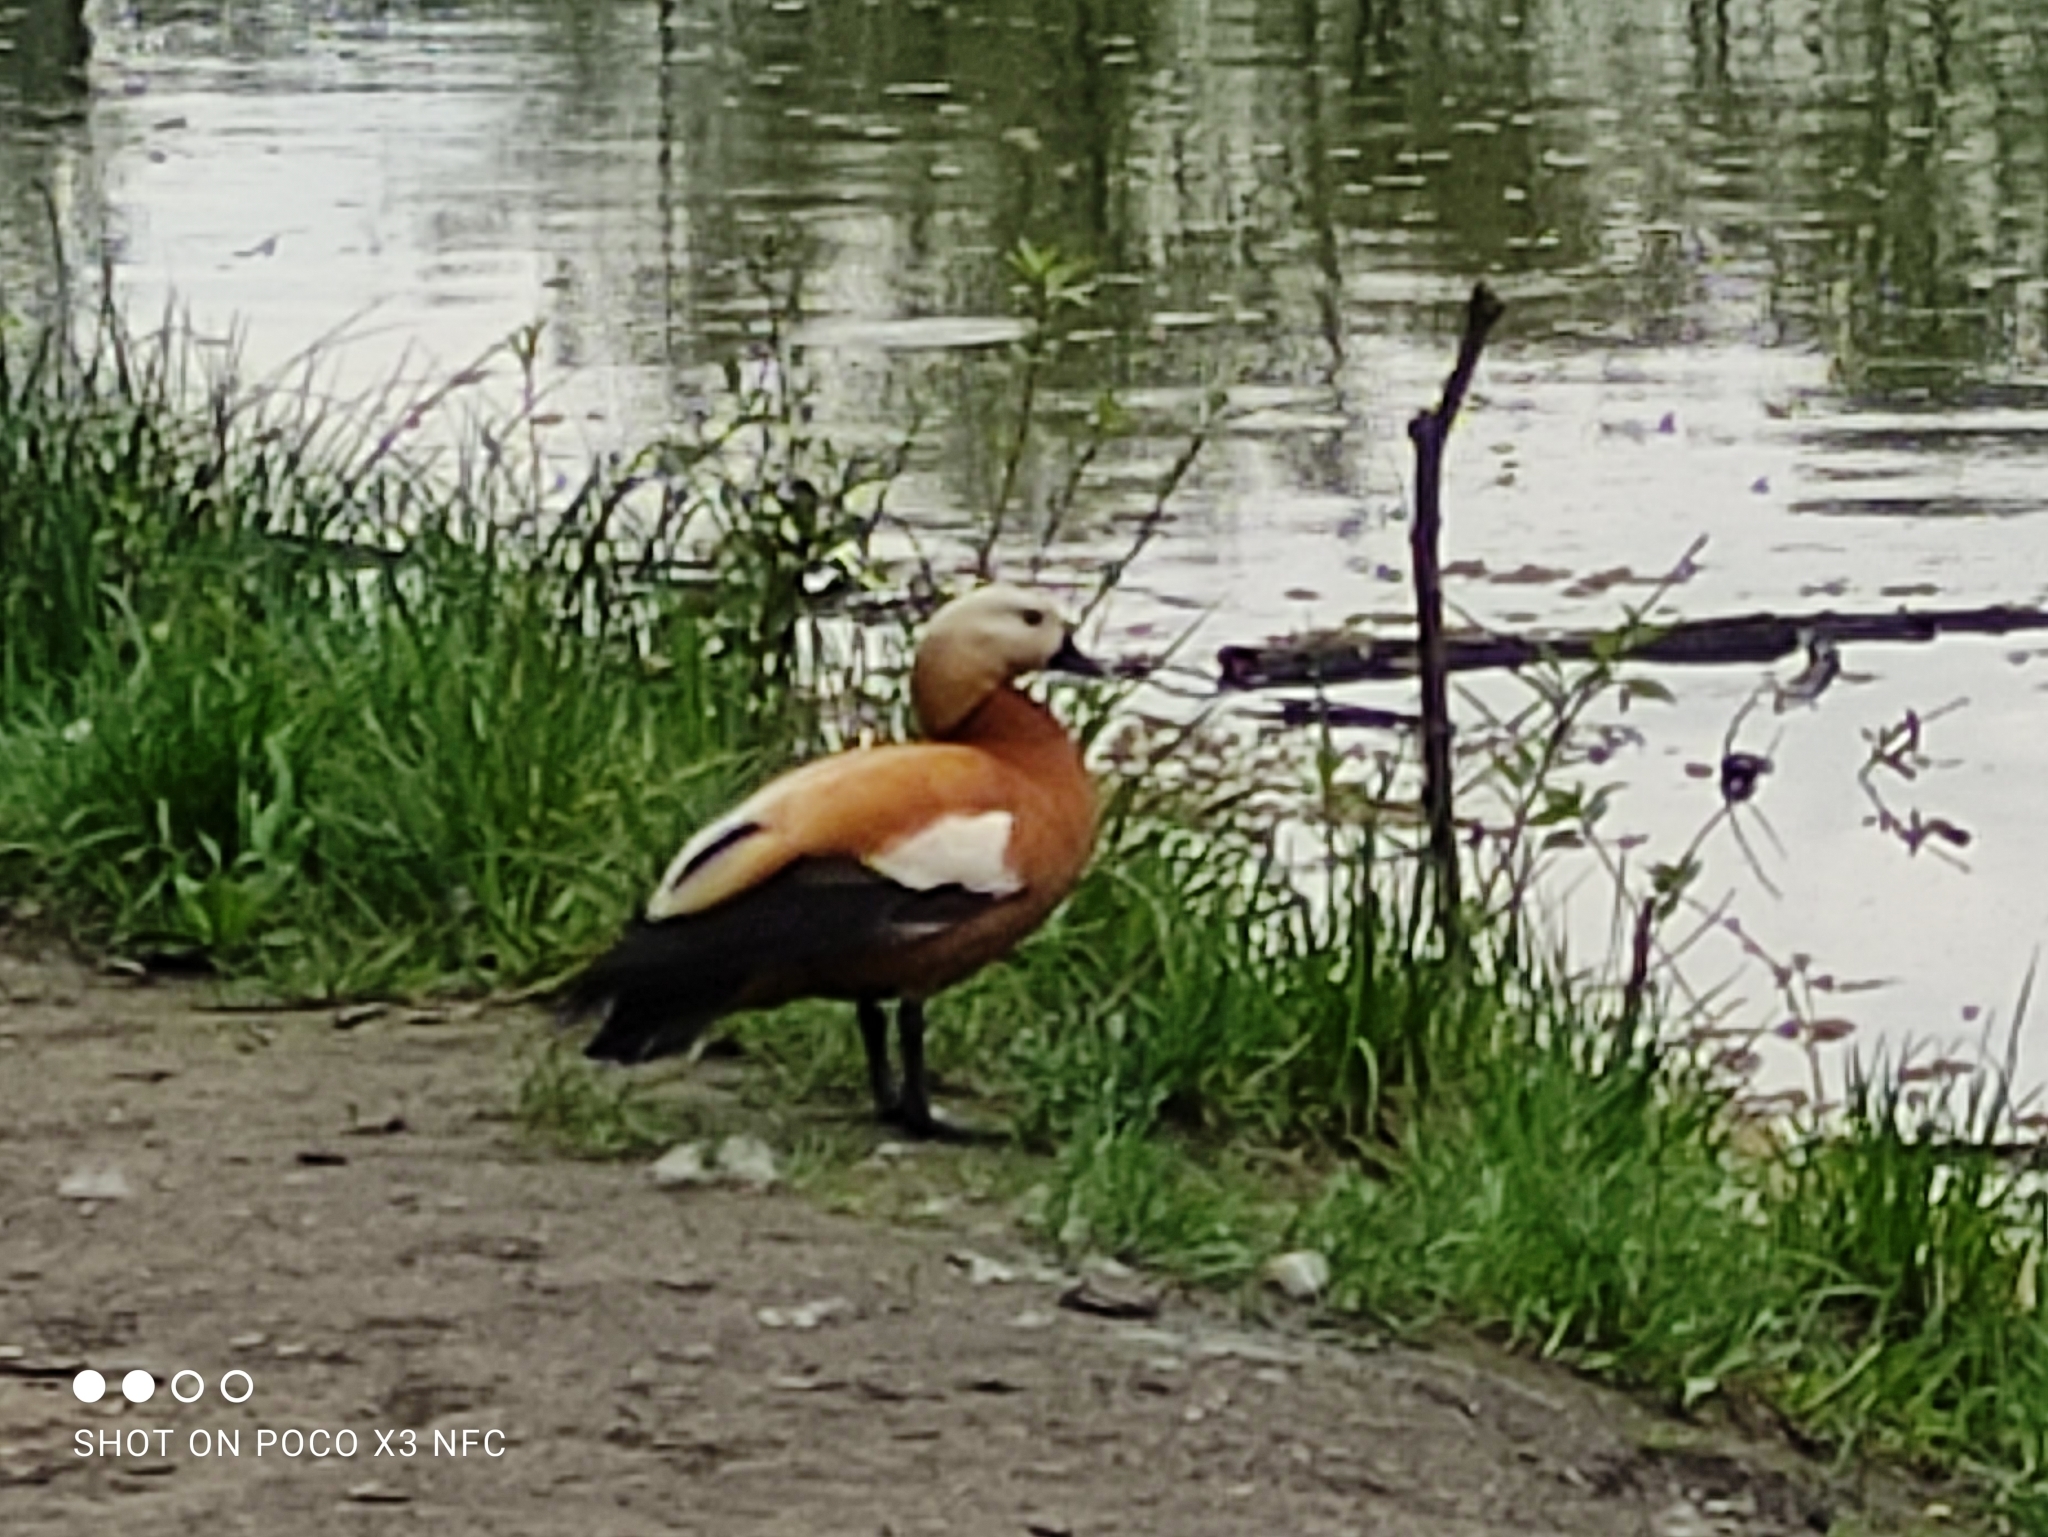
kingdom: Animalia
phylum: Chordata
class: Aves
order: Anseriformes
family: Anatidae
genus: Tadorna
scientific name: Tadorna ferruginea
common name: Ruddy shelduck
